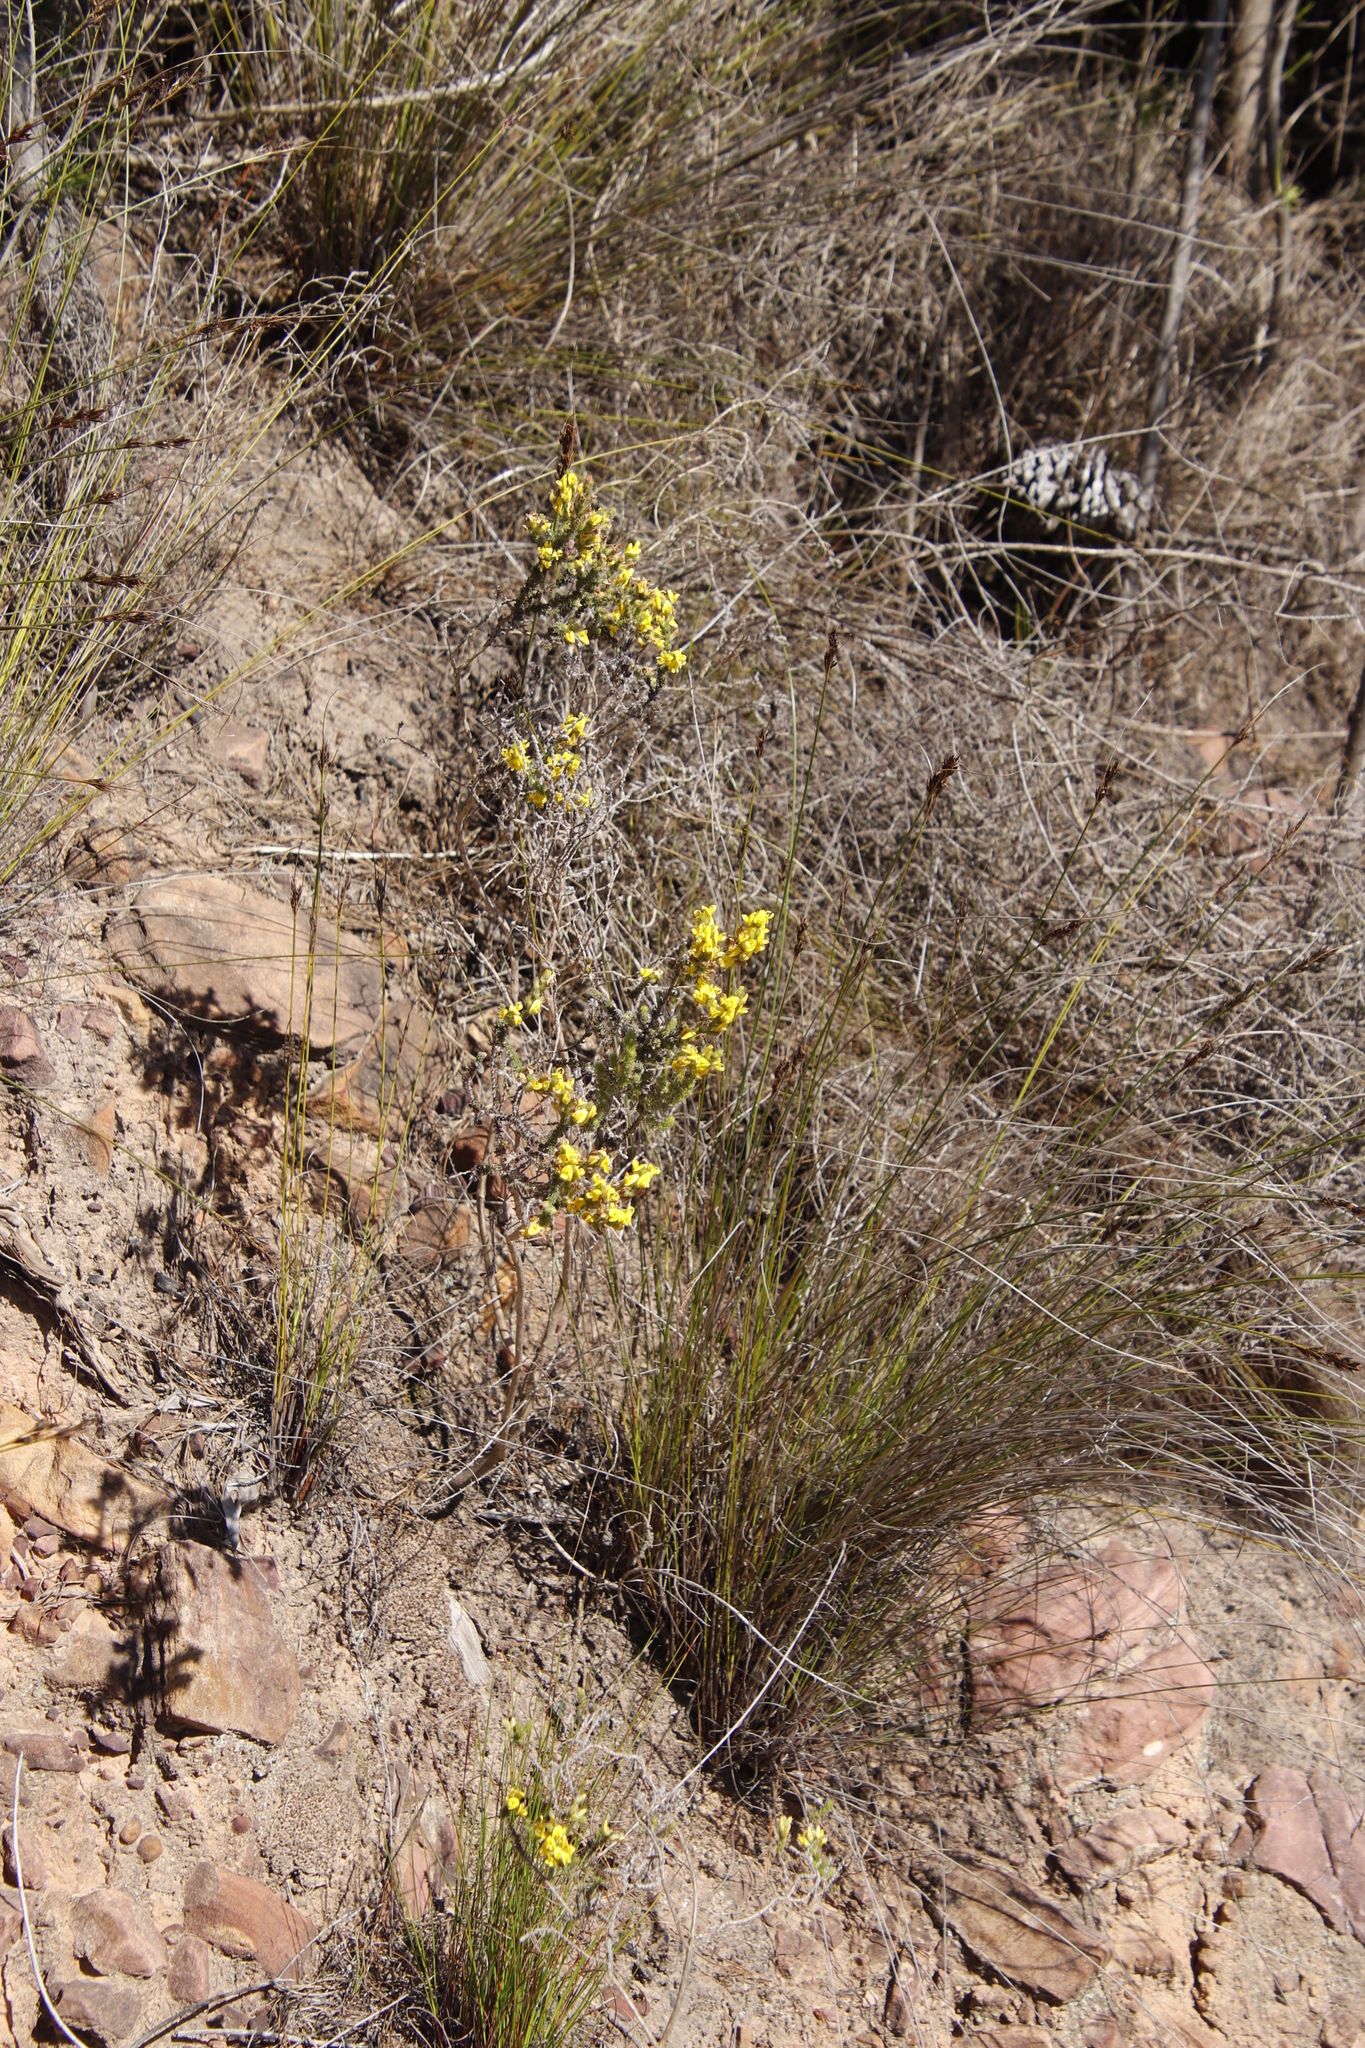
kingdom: Plantae
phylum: Tracheophyta
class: Magnoliopsida
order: Fabales
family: Fabaceae
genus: Aspalathus
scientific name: Aspalathus ericifolia
